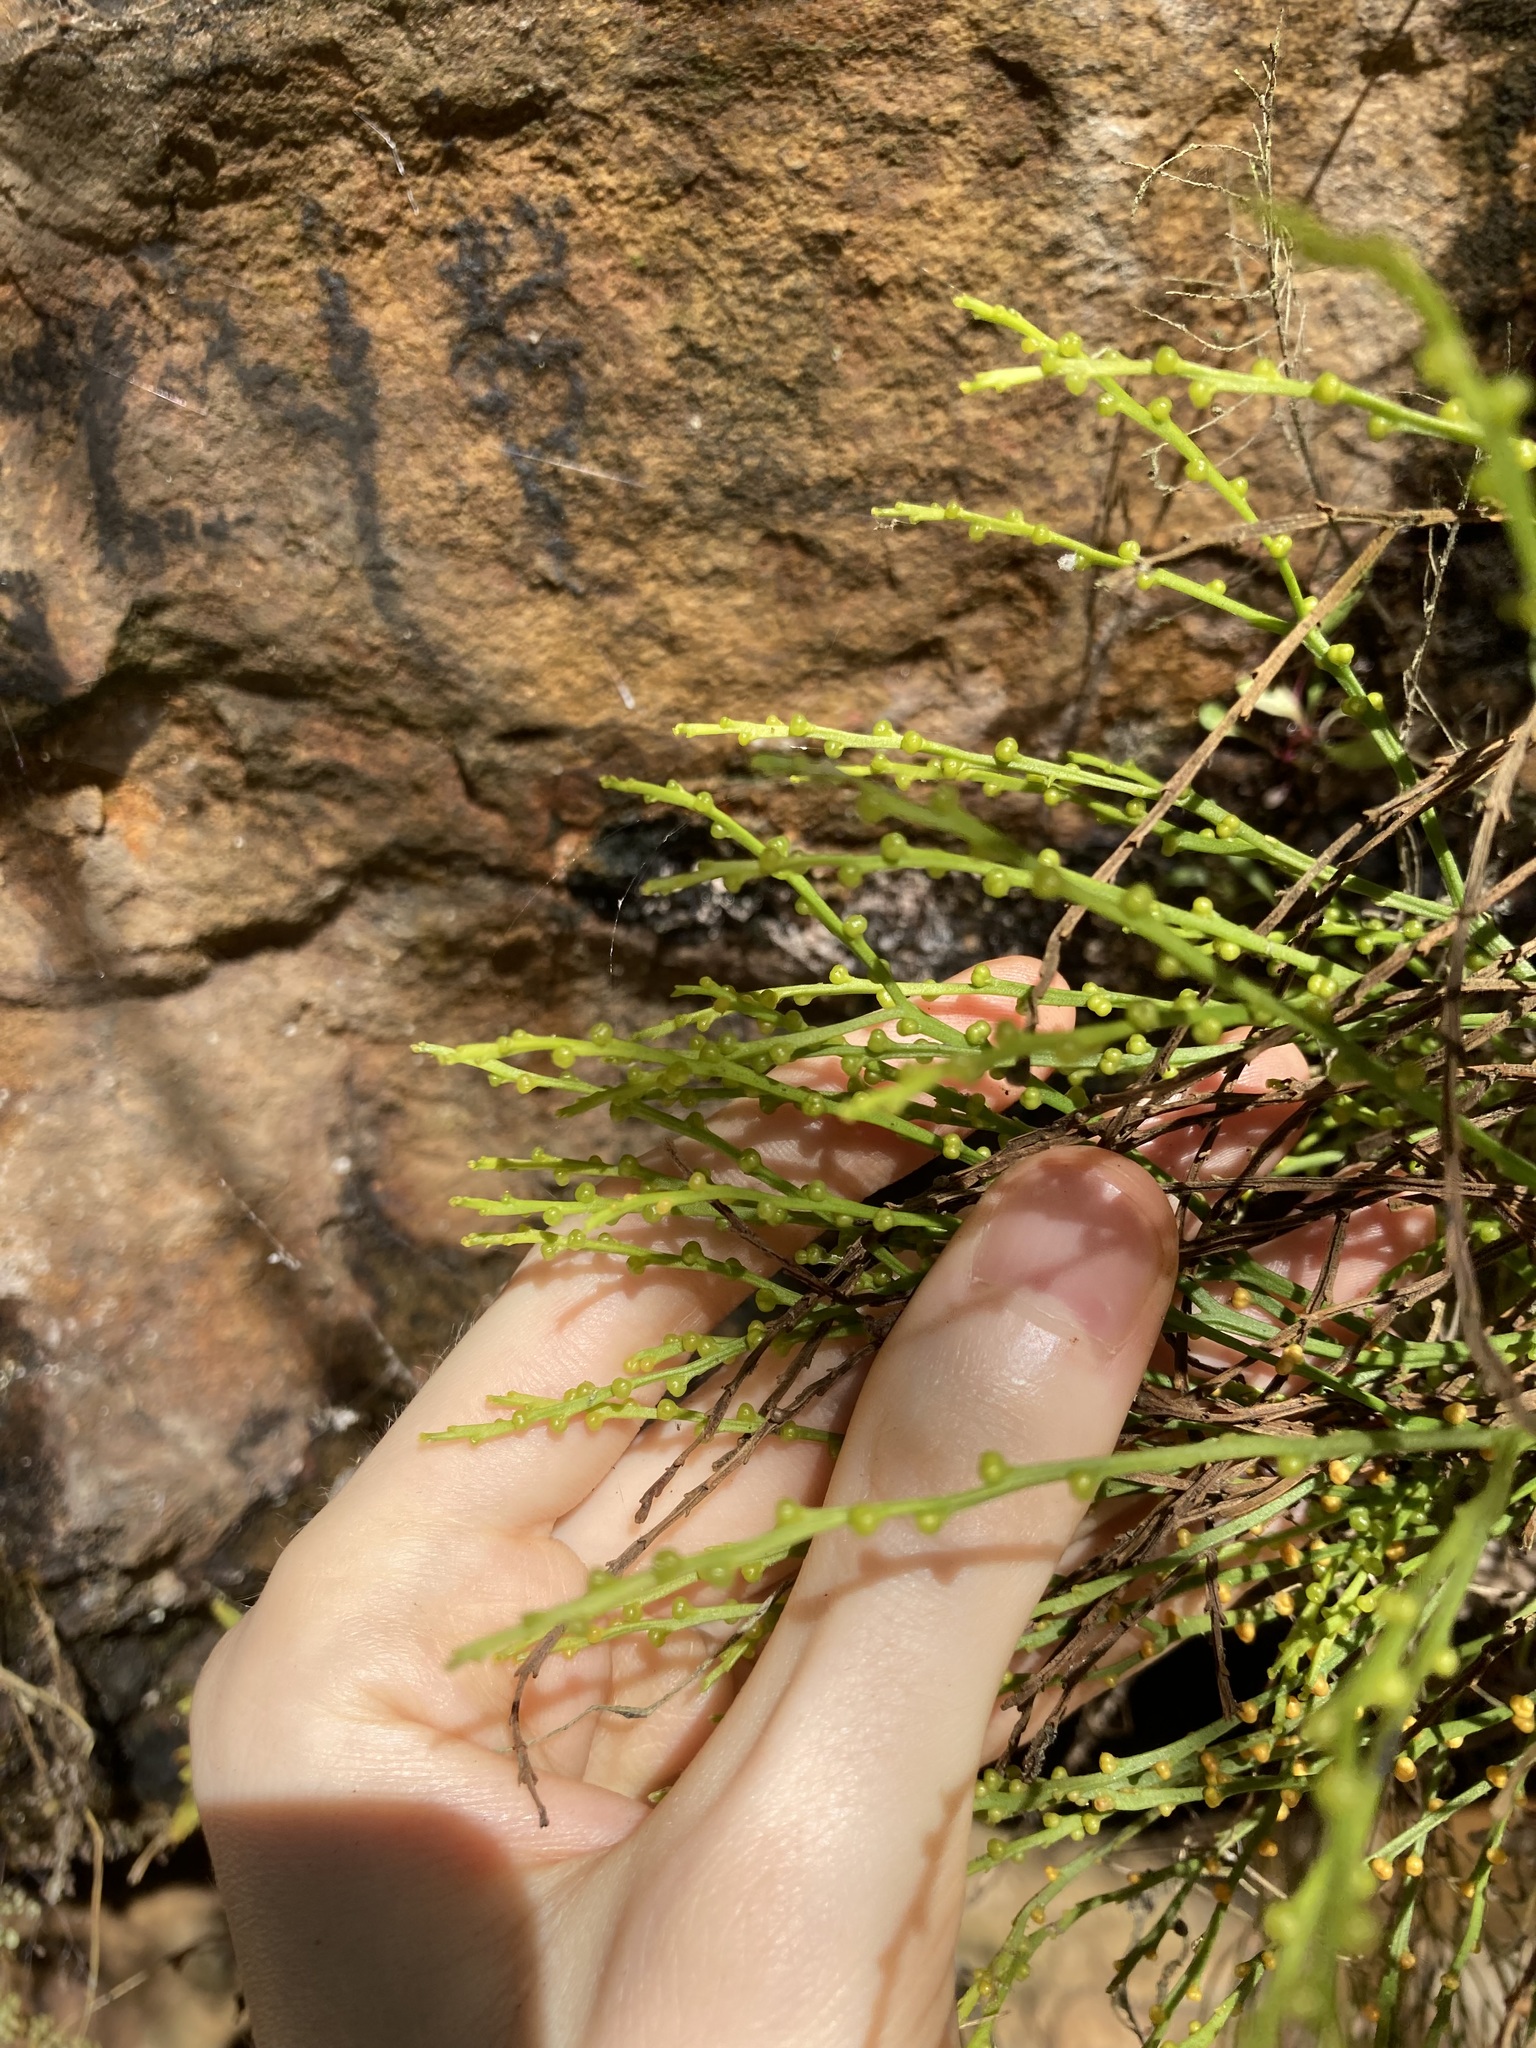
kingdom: Plantae
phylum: Tracheophyta
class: Polypodiopsida
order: Psilotales
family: Psilotaceae
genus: Psilotum
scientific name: Psilotum nudum
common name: Skeleton fork fern
